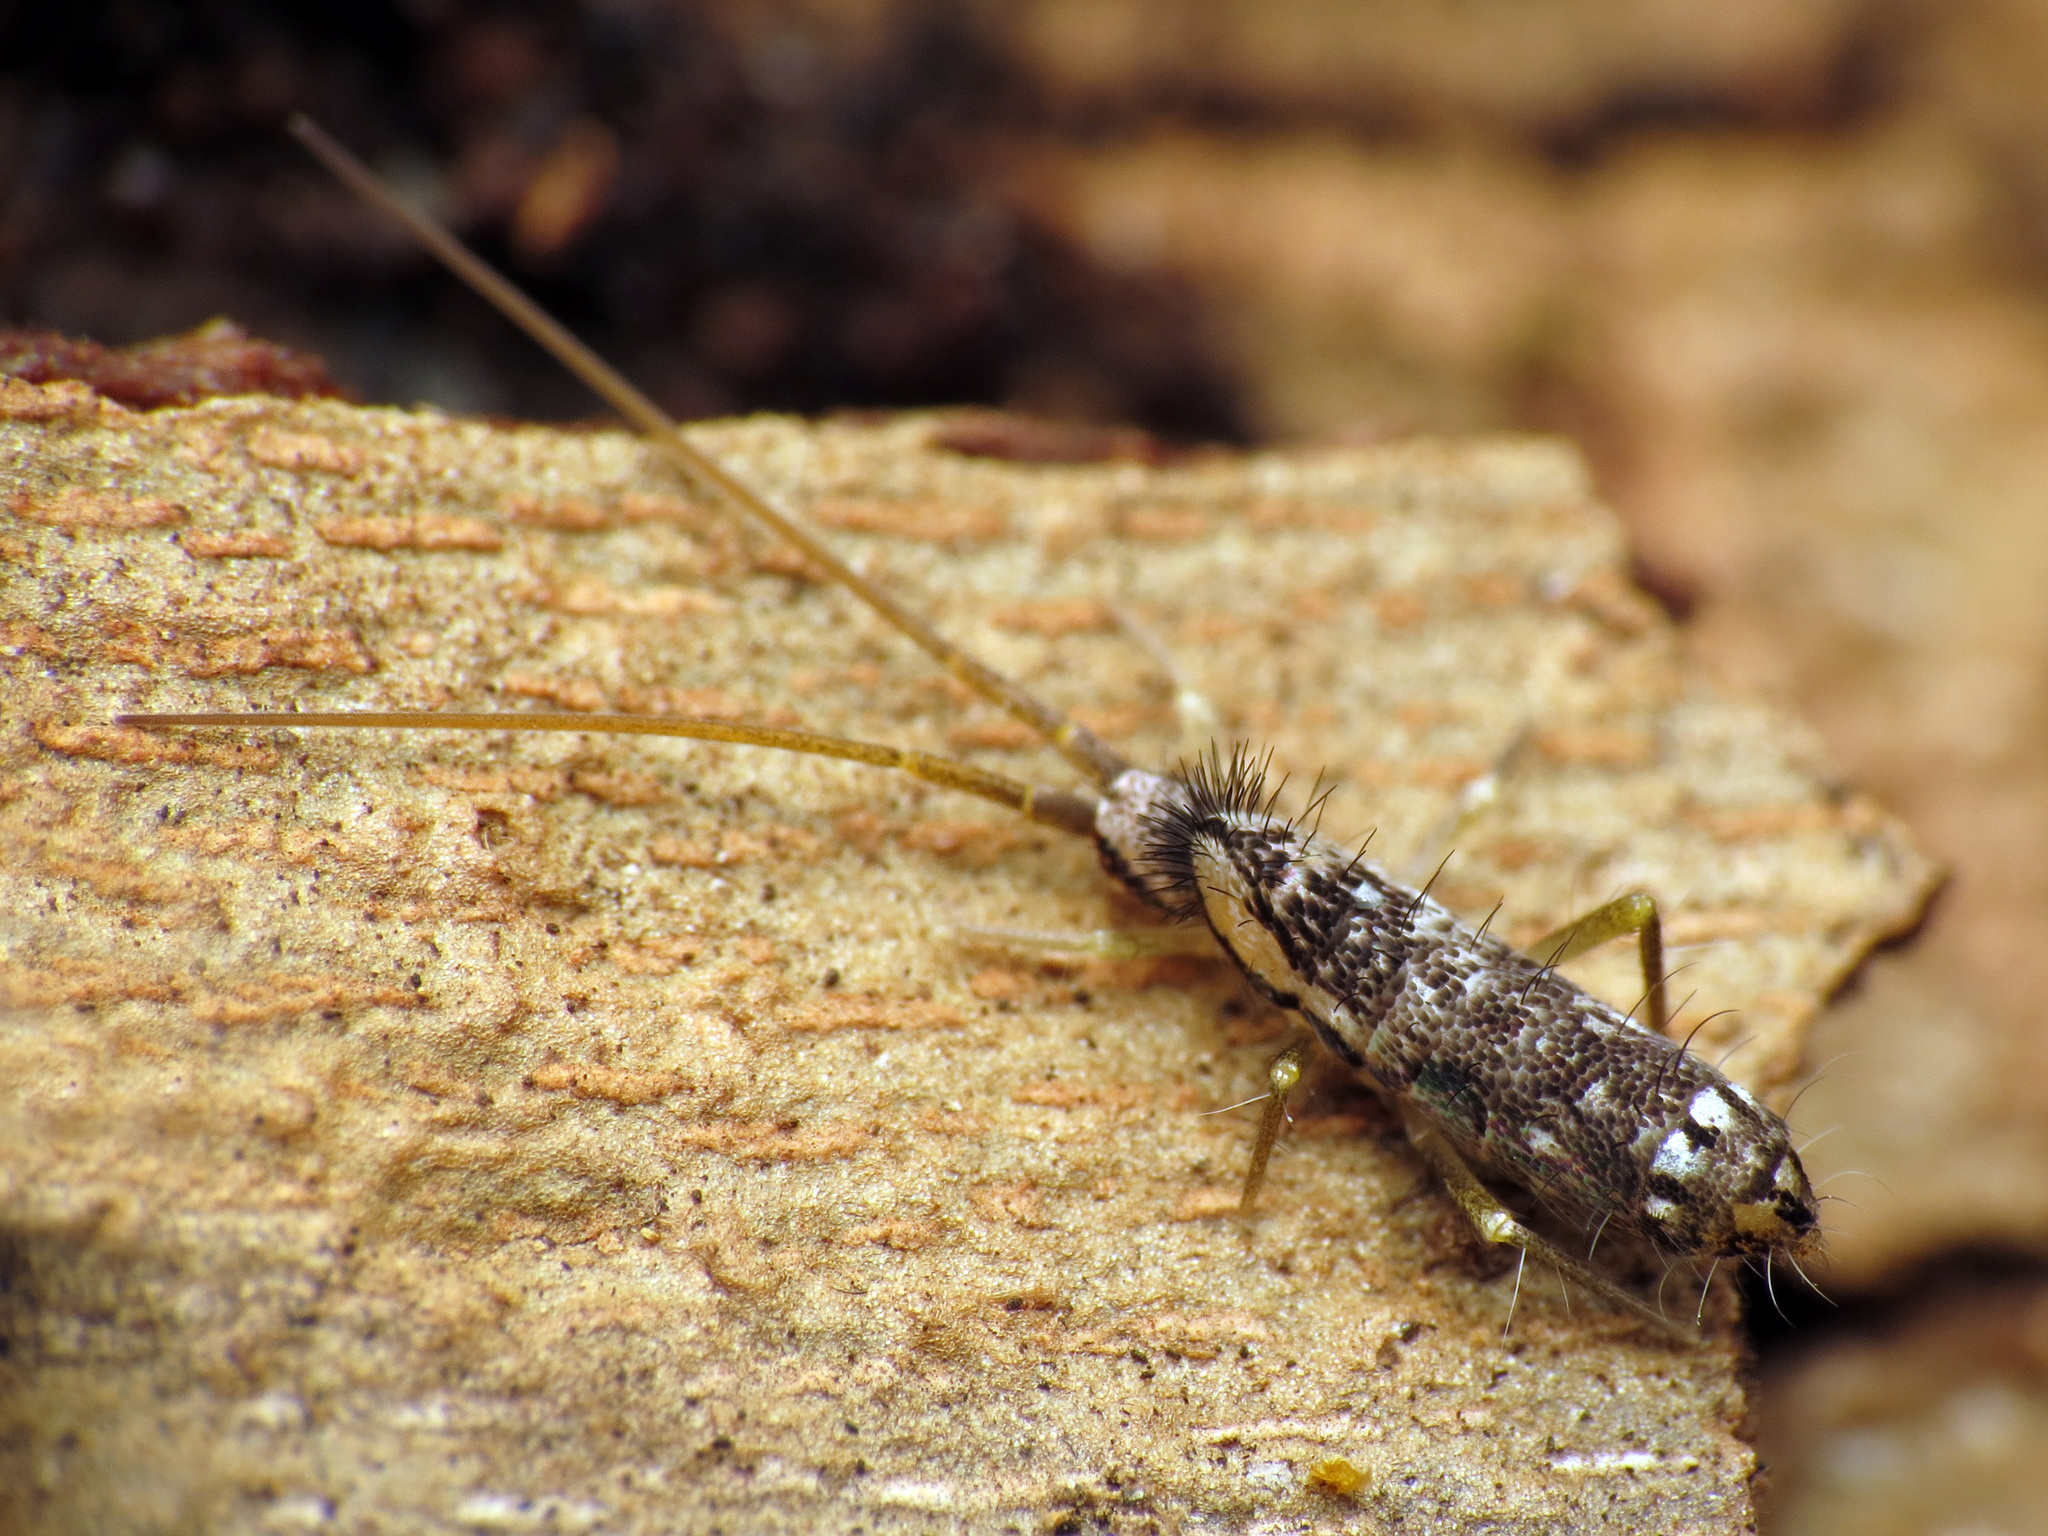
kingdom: Animalia
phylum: Arthropoda
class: Collembola
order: Entomobryomorpha
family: Tomoceridae
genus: Pogonognathellus
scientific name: Pogonognathellus elongatus
